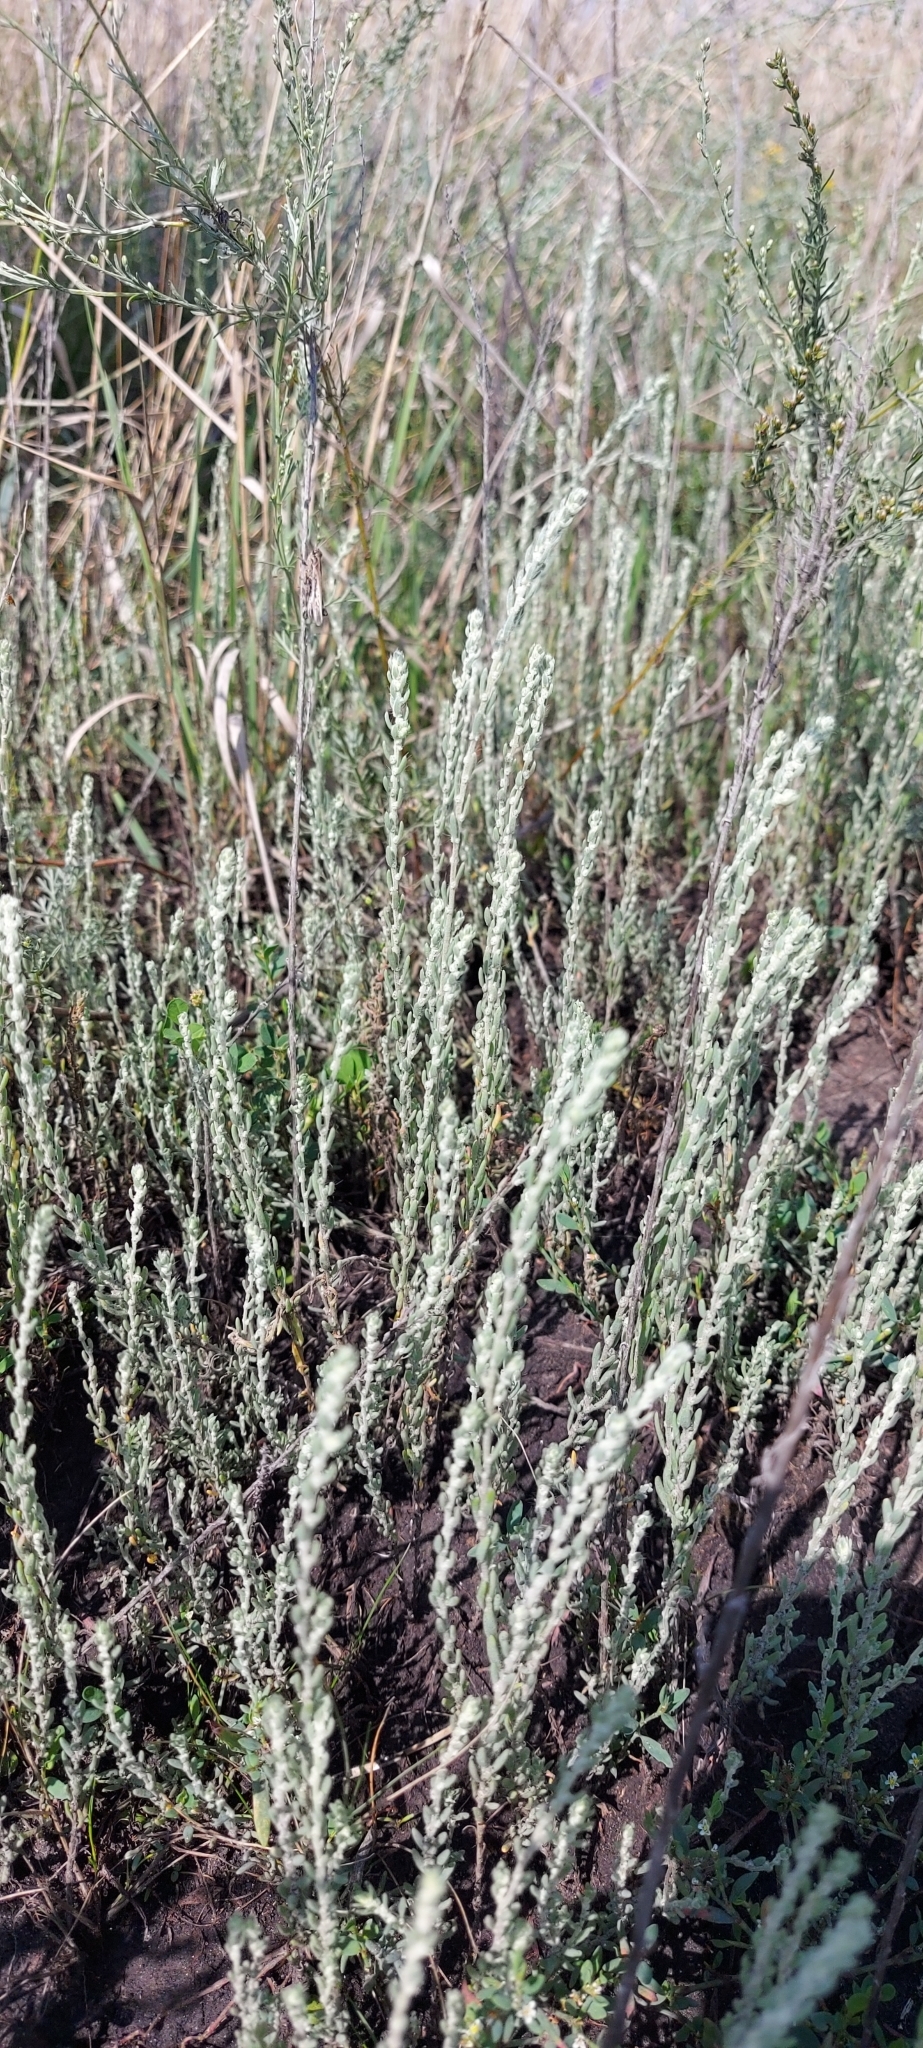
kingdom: Plantae
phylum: Tracheophyta
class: Magnoliopsida
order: Caryophyllales
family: Amaranthaceae
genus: Sedobassia
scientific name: Sedobassia sedoides
